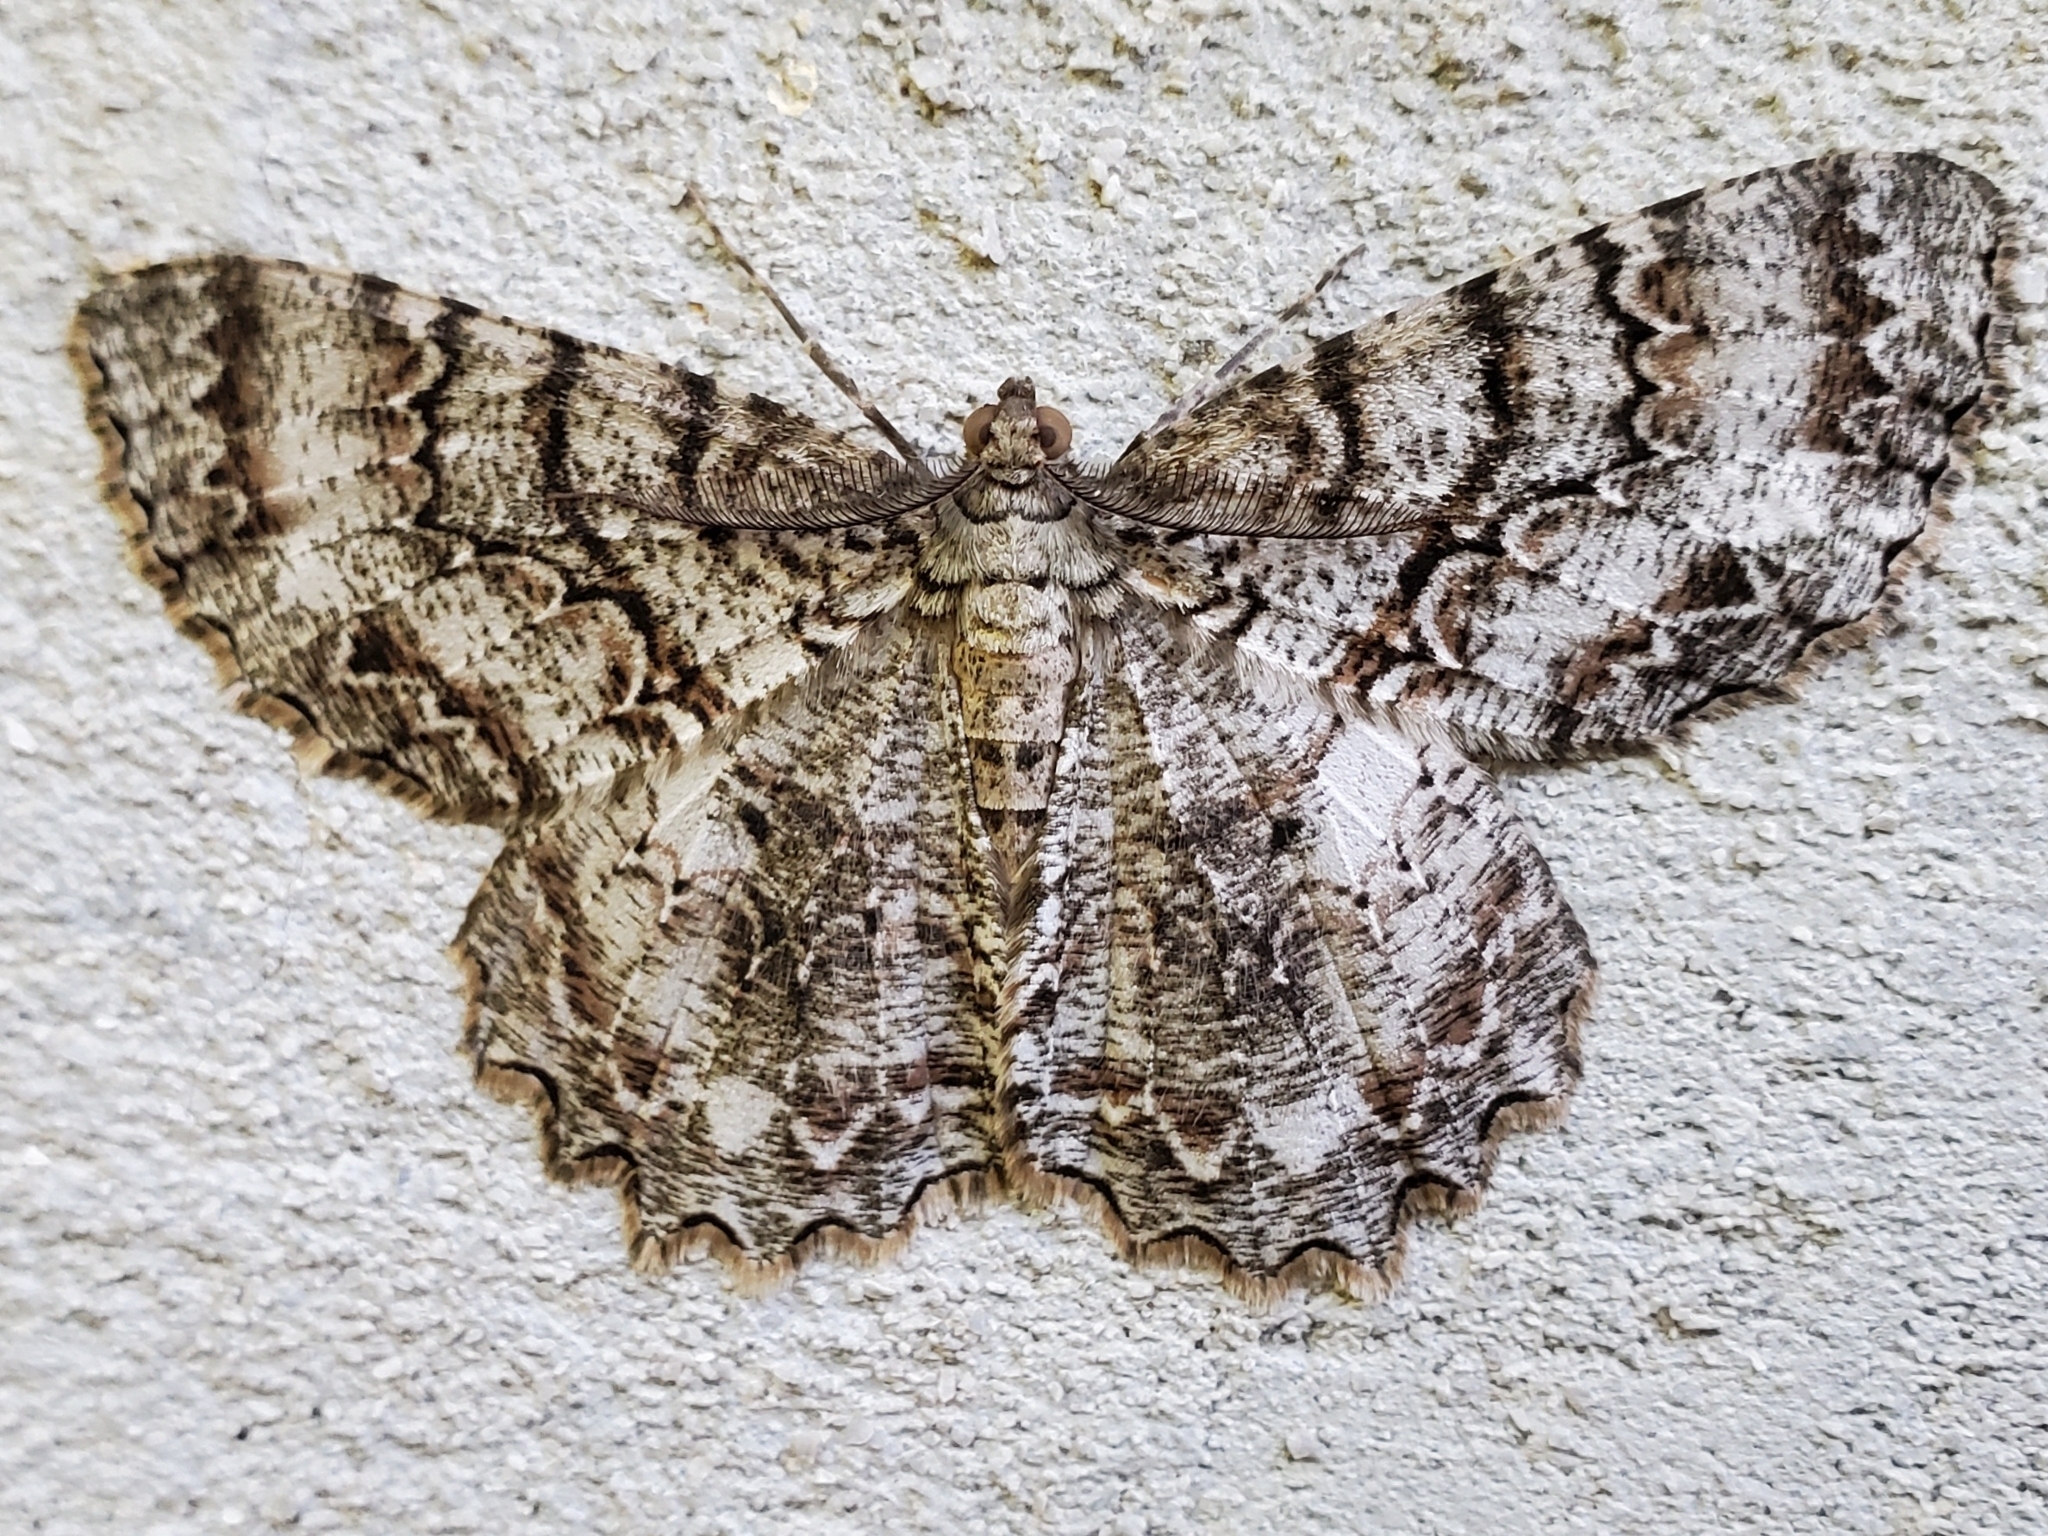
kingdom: Animalia
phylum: Arthropoda
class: Insecta
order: Lepidoptera
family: Geometridae
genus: Epimecis
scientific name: Epimecis hortaria
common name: Tulip-tree beauty
